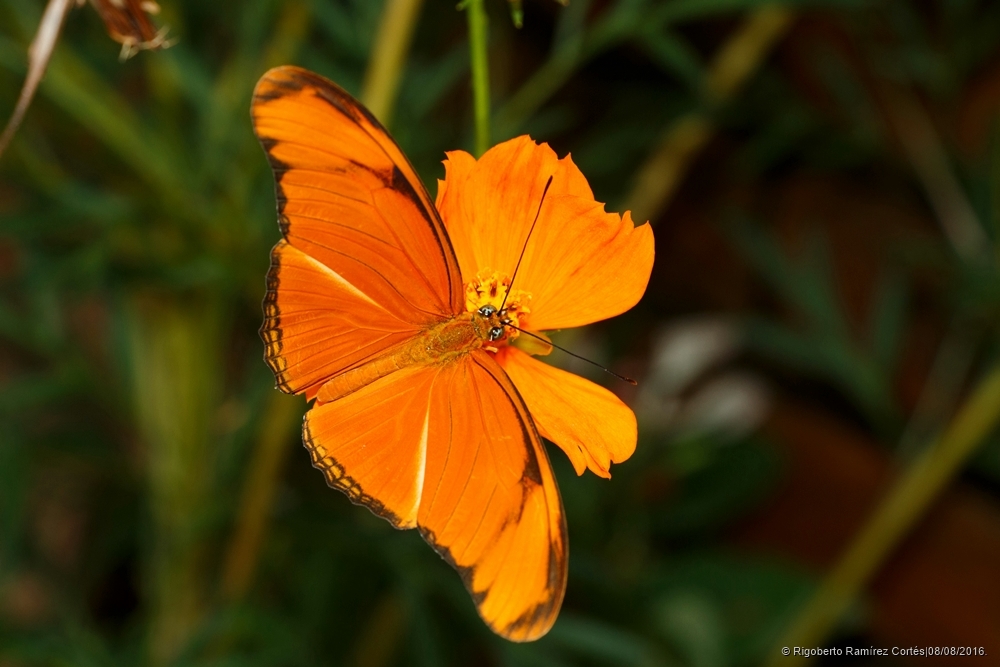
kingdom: Animalia
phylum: Arthropoda
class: Insecta
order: Lepidoptera
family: Nymphalidae
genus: Dryas
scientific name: Dryas iulia
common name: Flambeau
